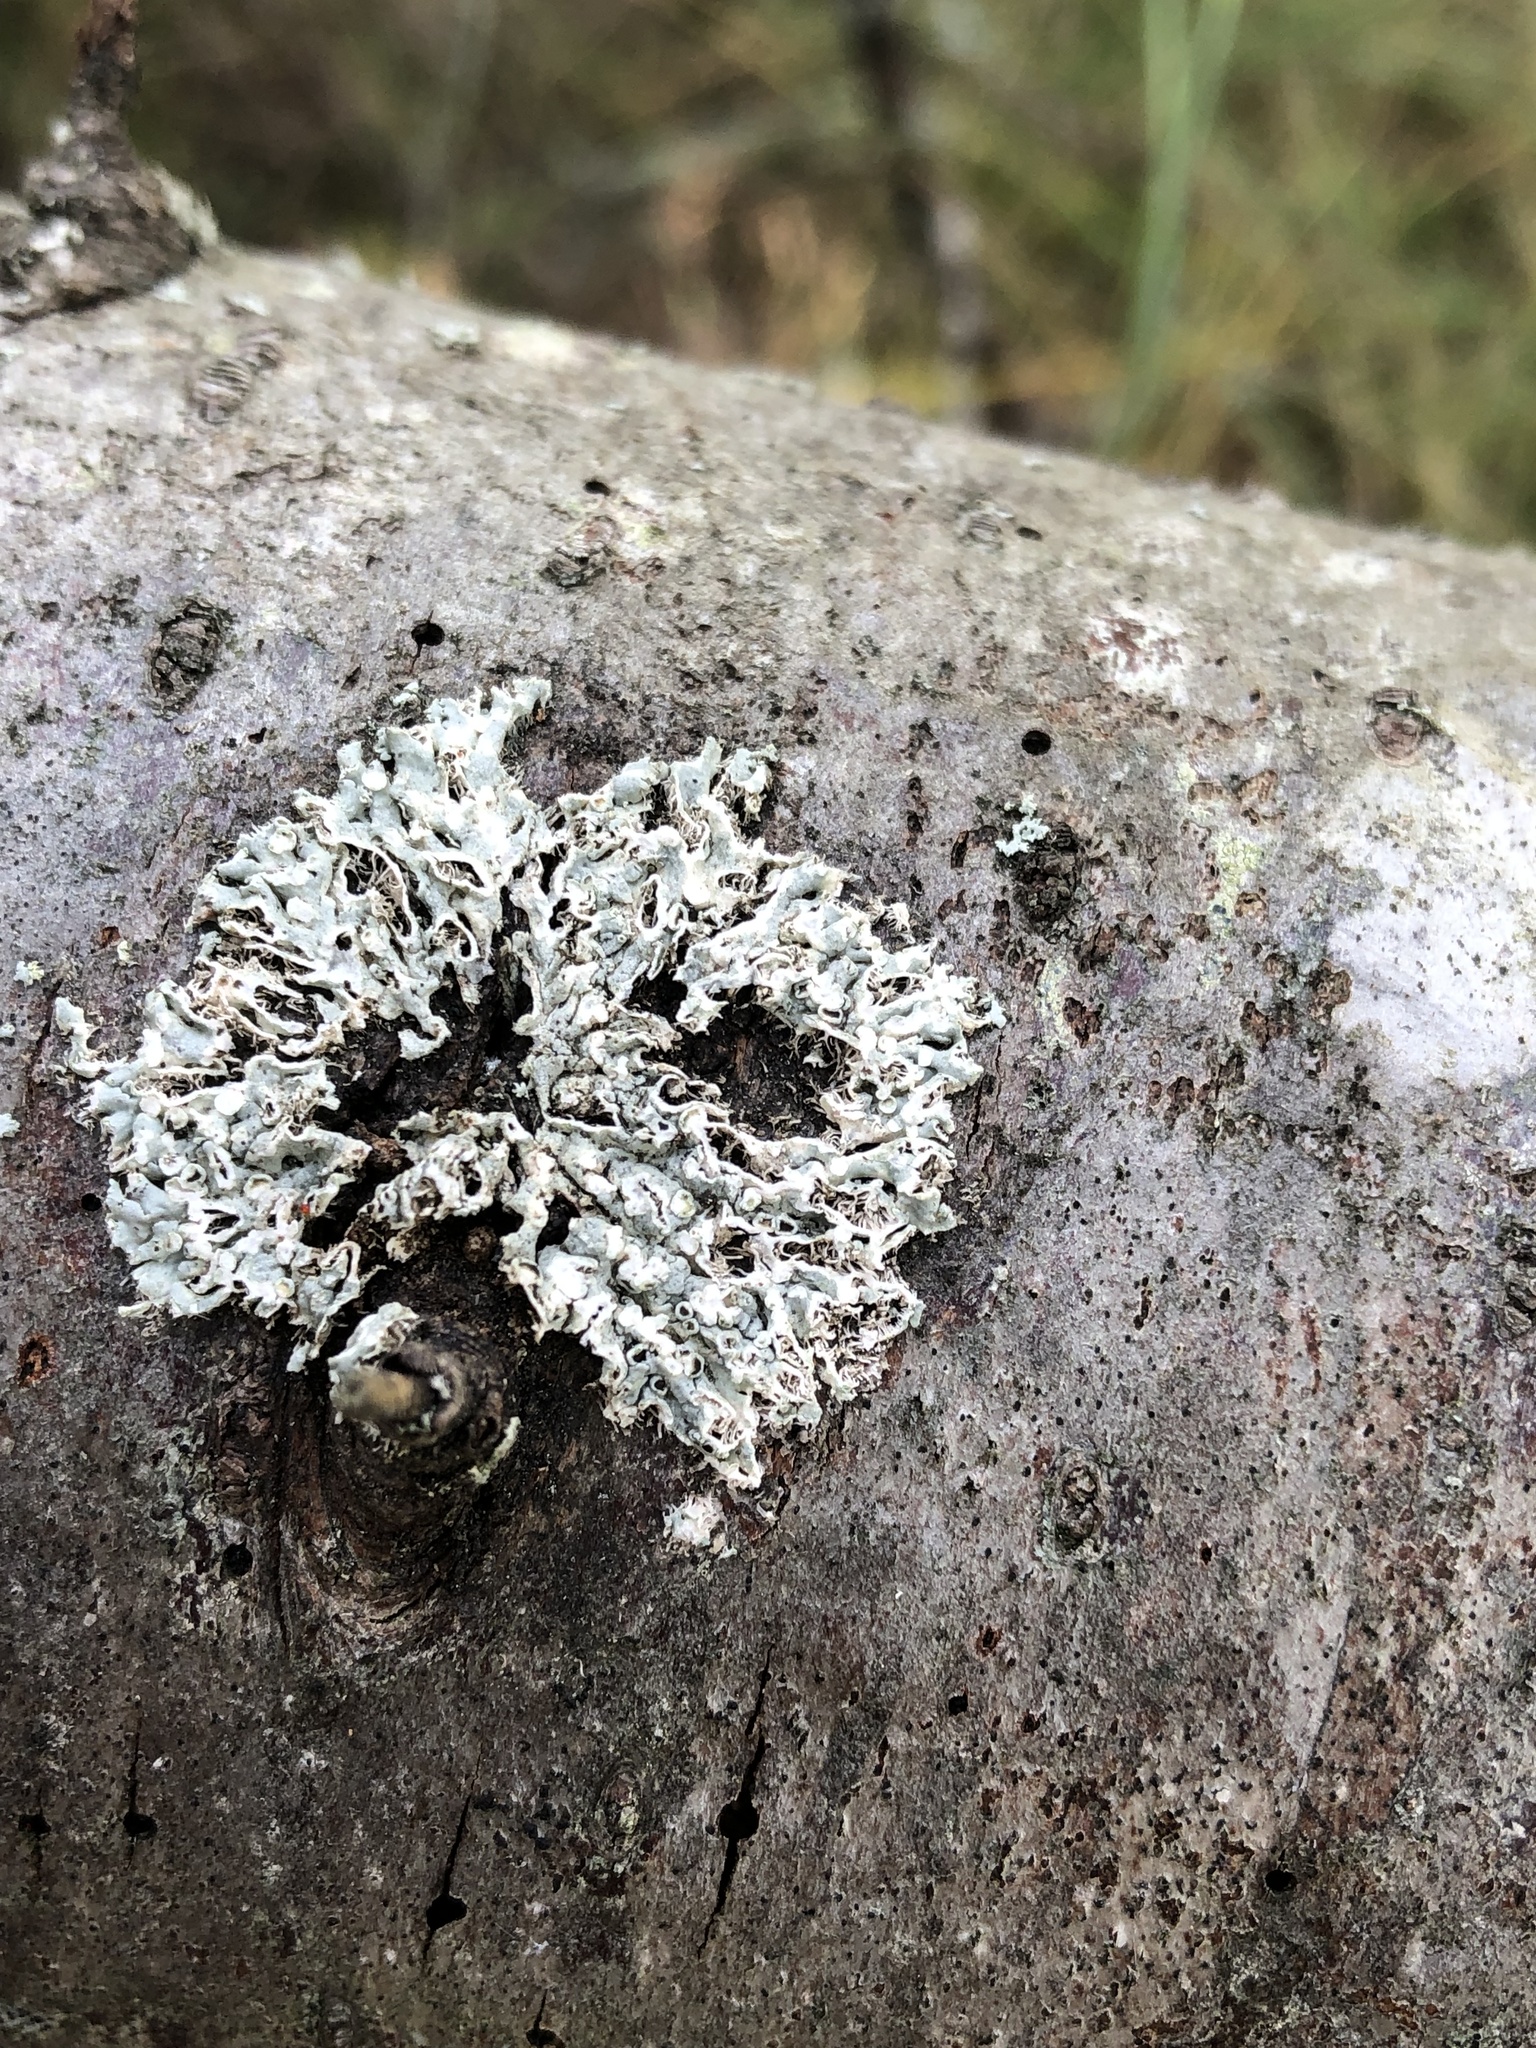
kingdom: Fungi
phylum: Ascomycota
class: Lecanoromycetes
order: Caliciales
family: Physciaceae
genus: Physcia
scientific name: Physcia adscendens
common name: Hooded rosette lichen
